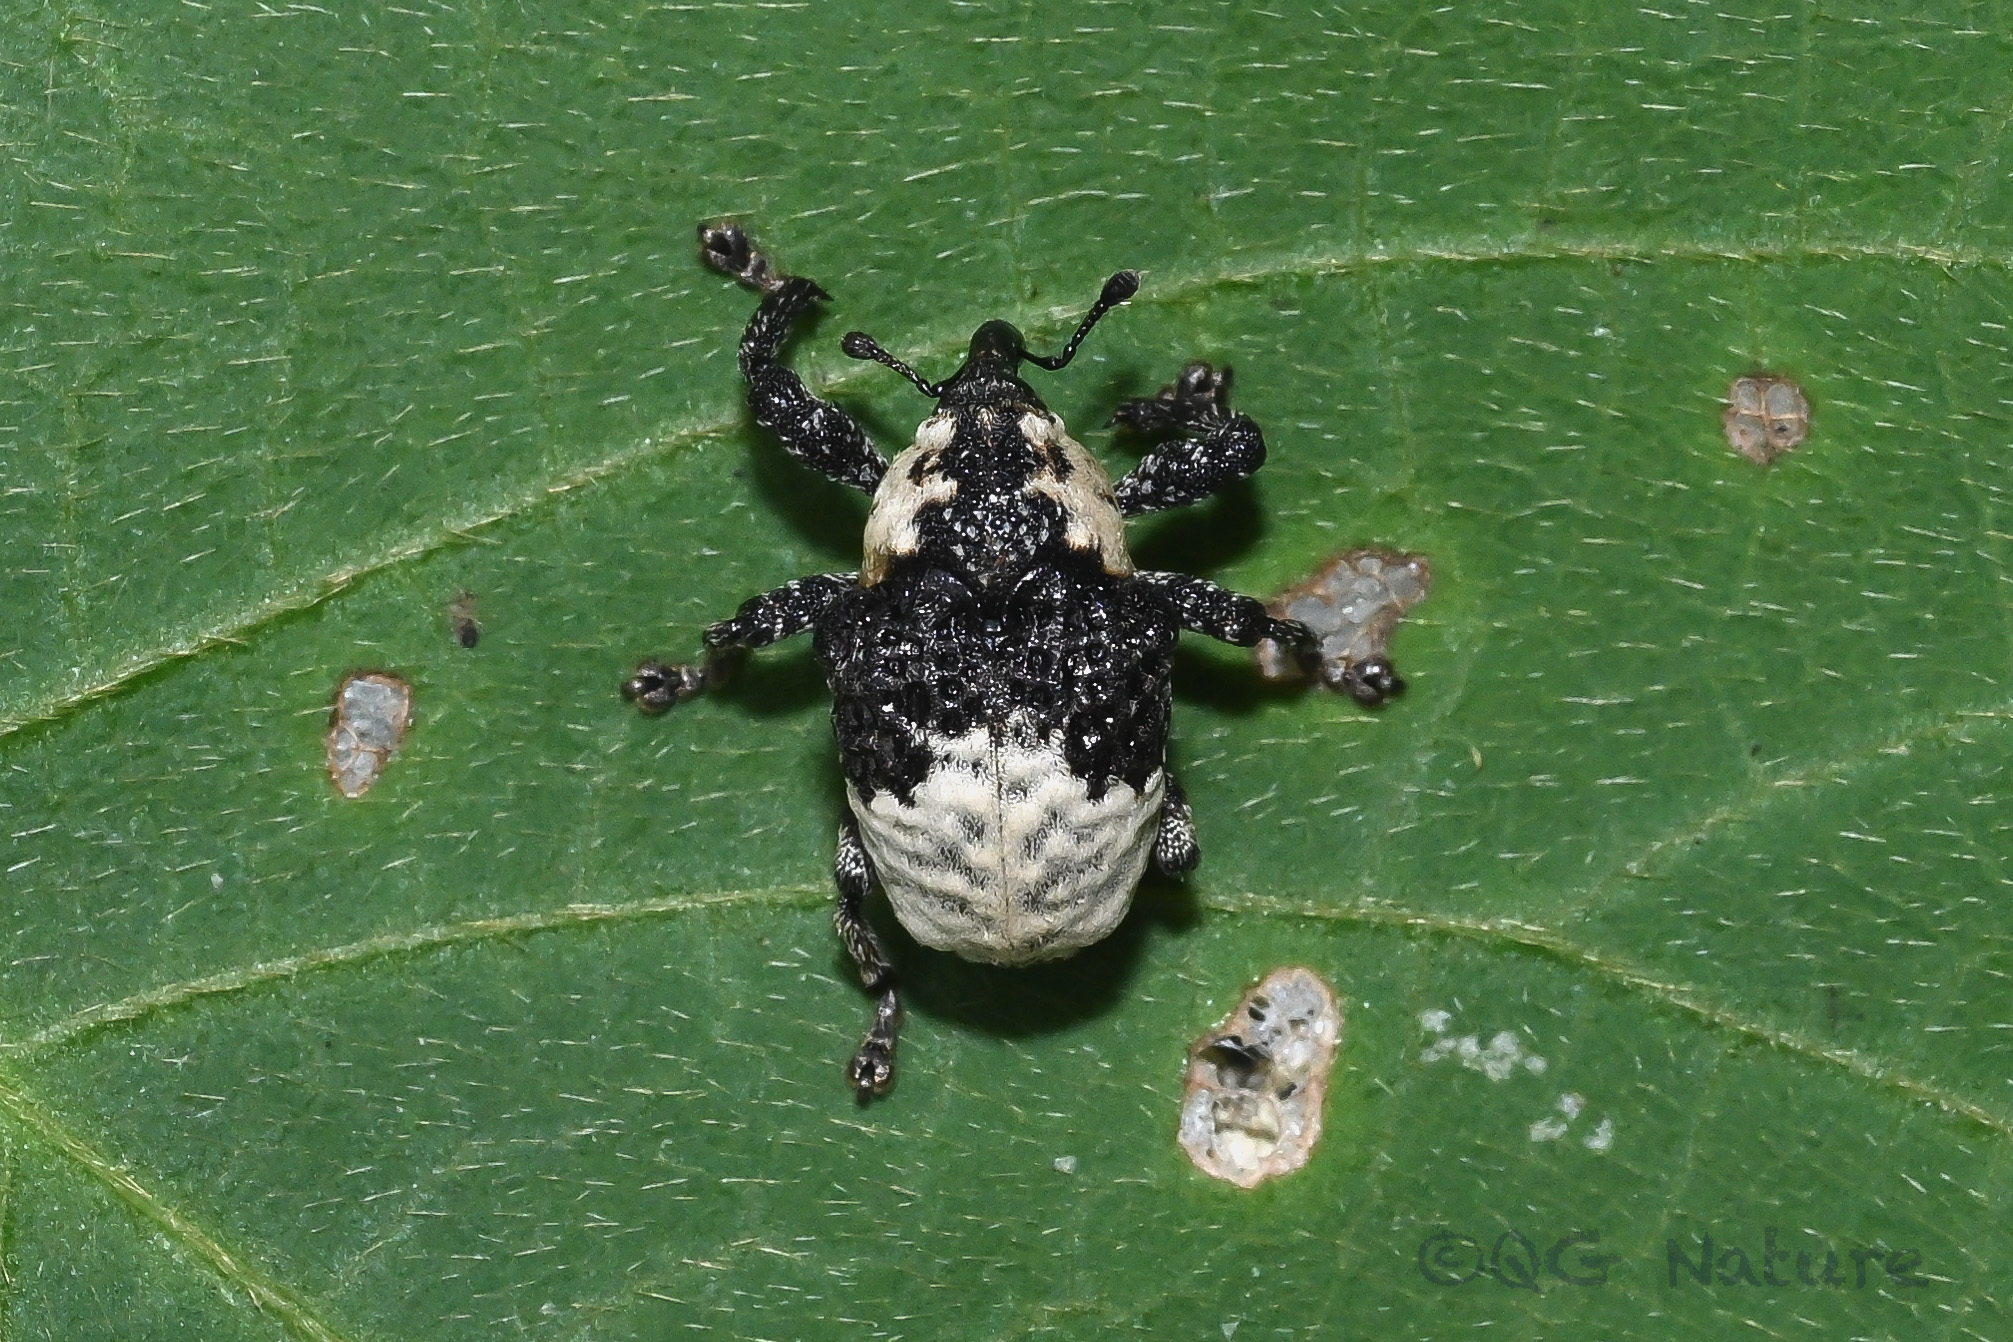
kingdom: Animalia
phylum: Arthropoda
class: Insecta
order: Coleoptera
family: Curculionidae
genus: Alcides
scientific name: Alcides trifidus
